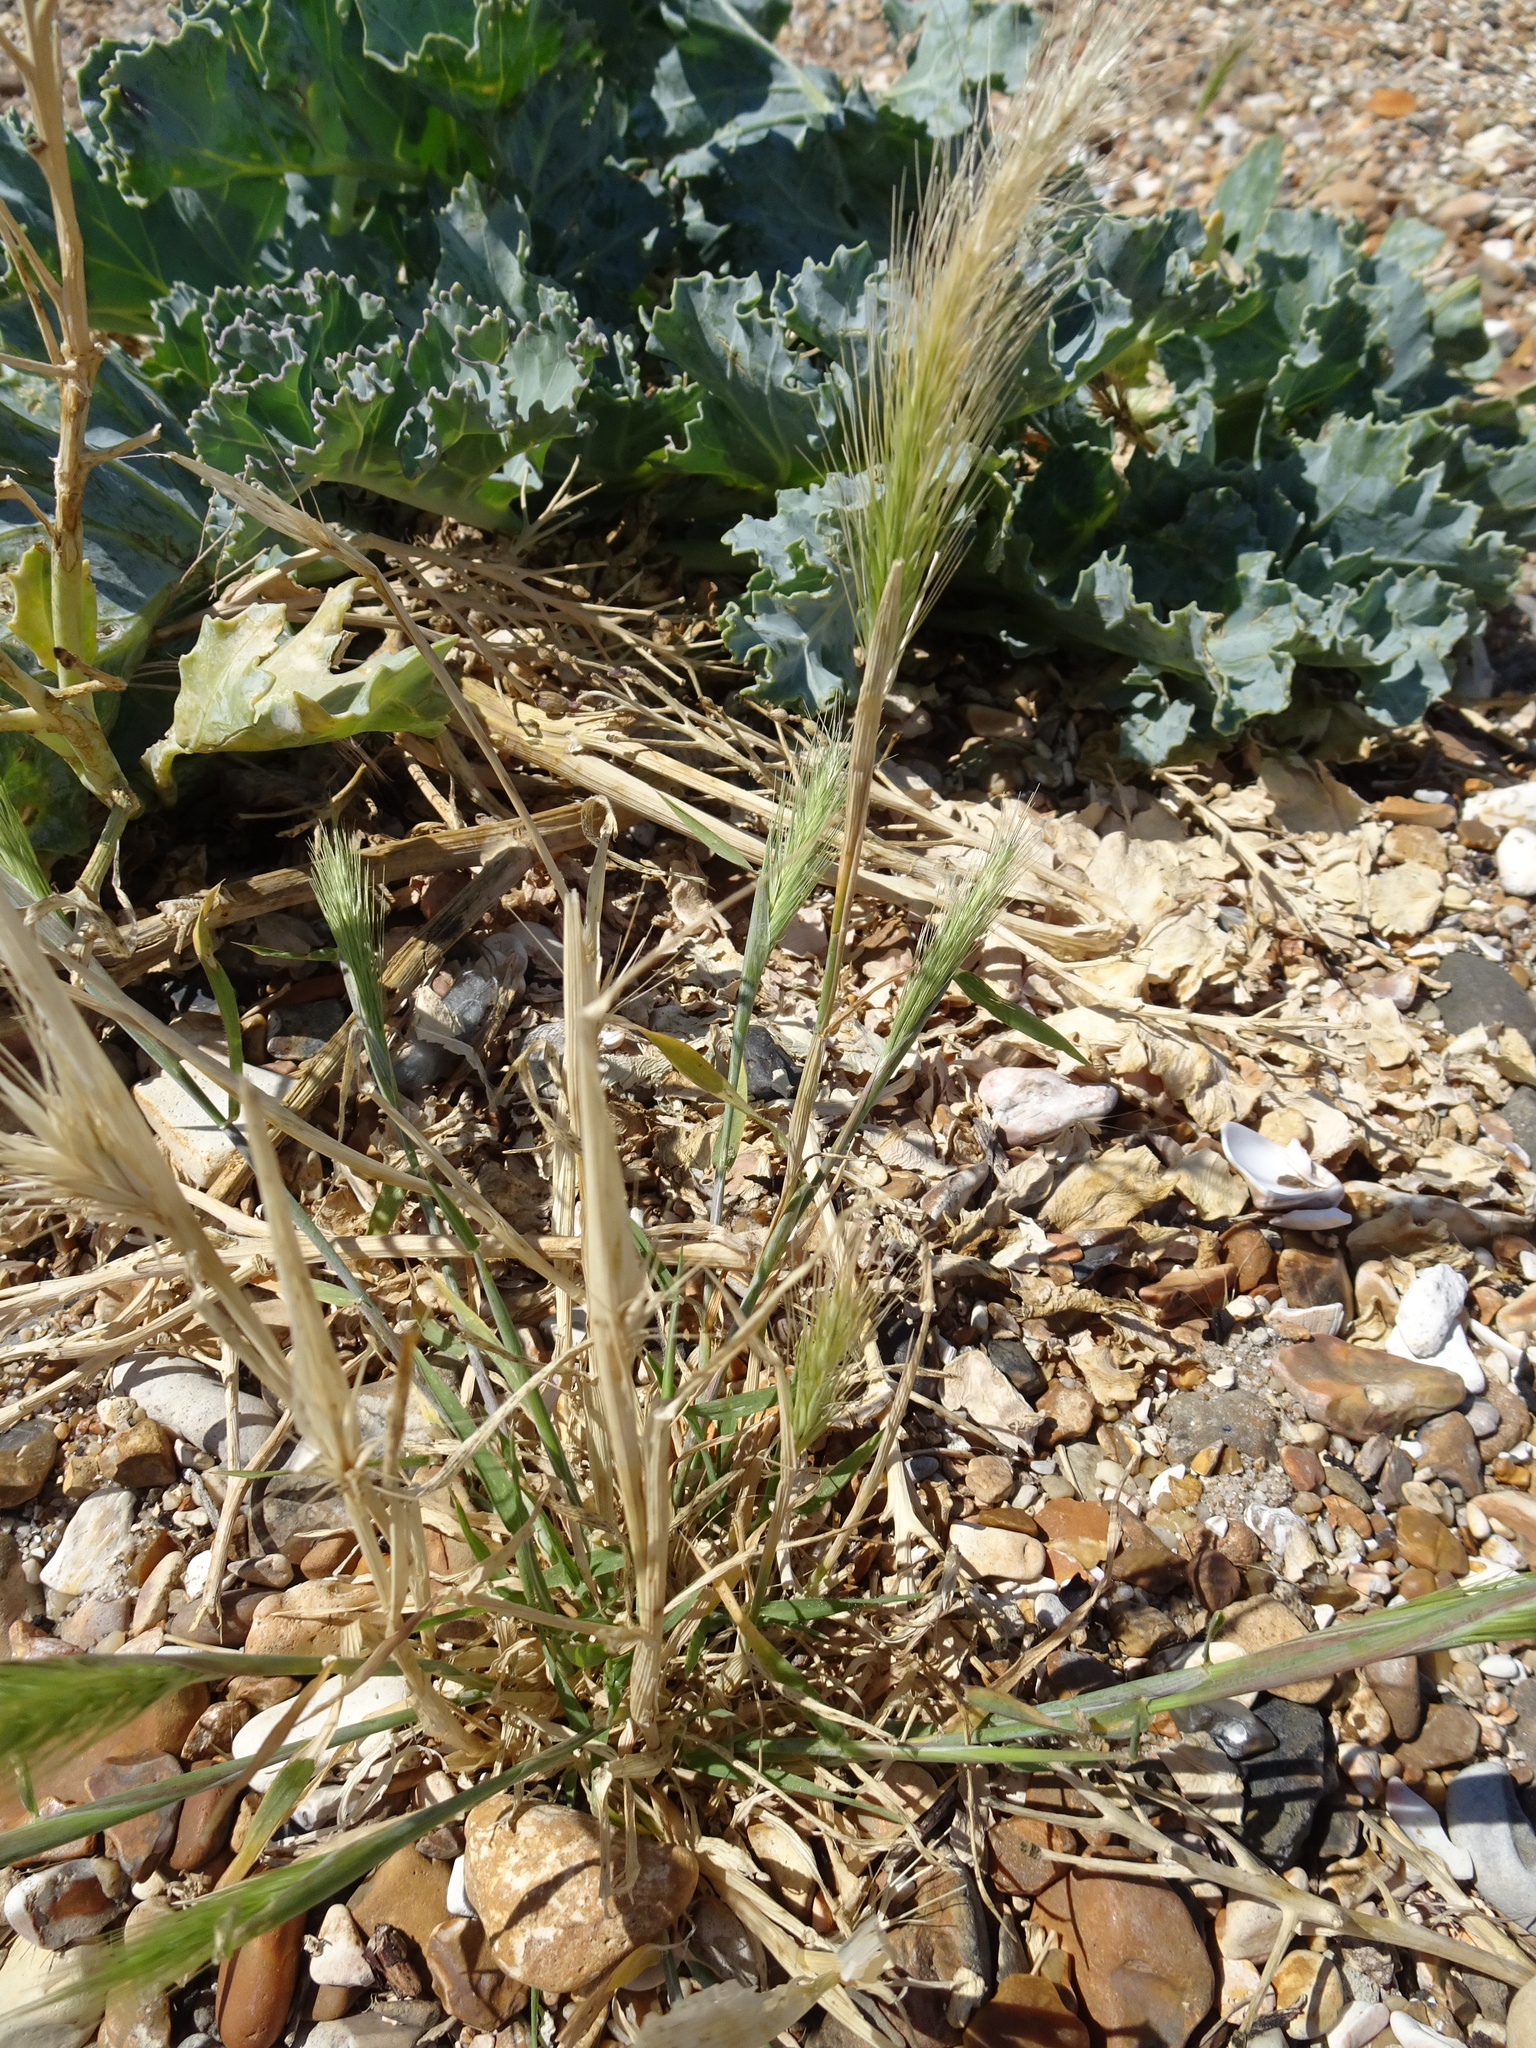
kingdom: Plantae
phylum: Tracheophyta
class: Liliopsida
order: Poales
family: Poaceae
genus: Hordeum
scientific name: Hordeum murinum
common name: Wall barley
